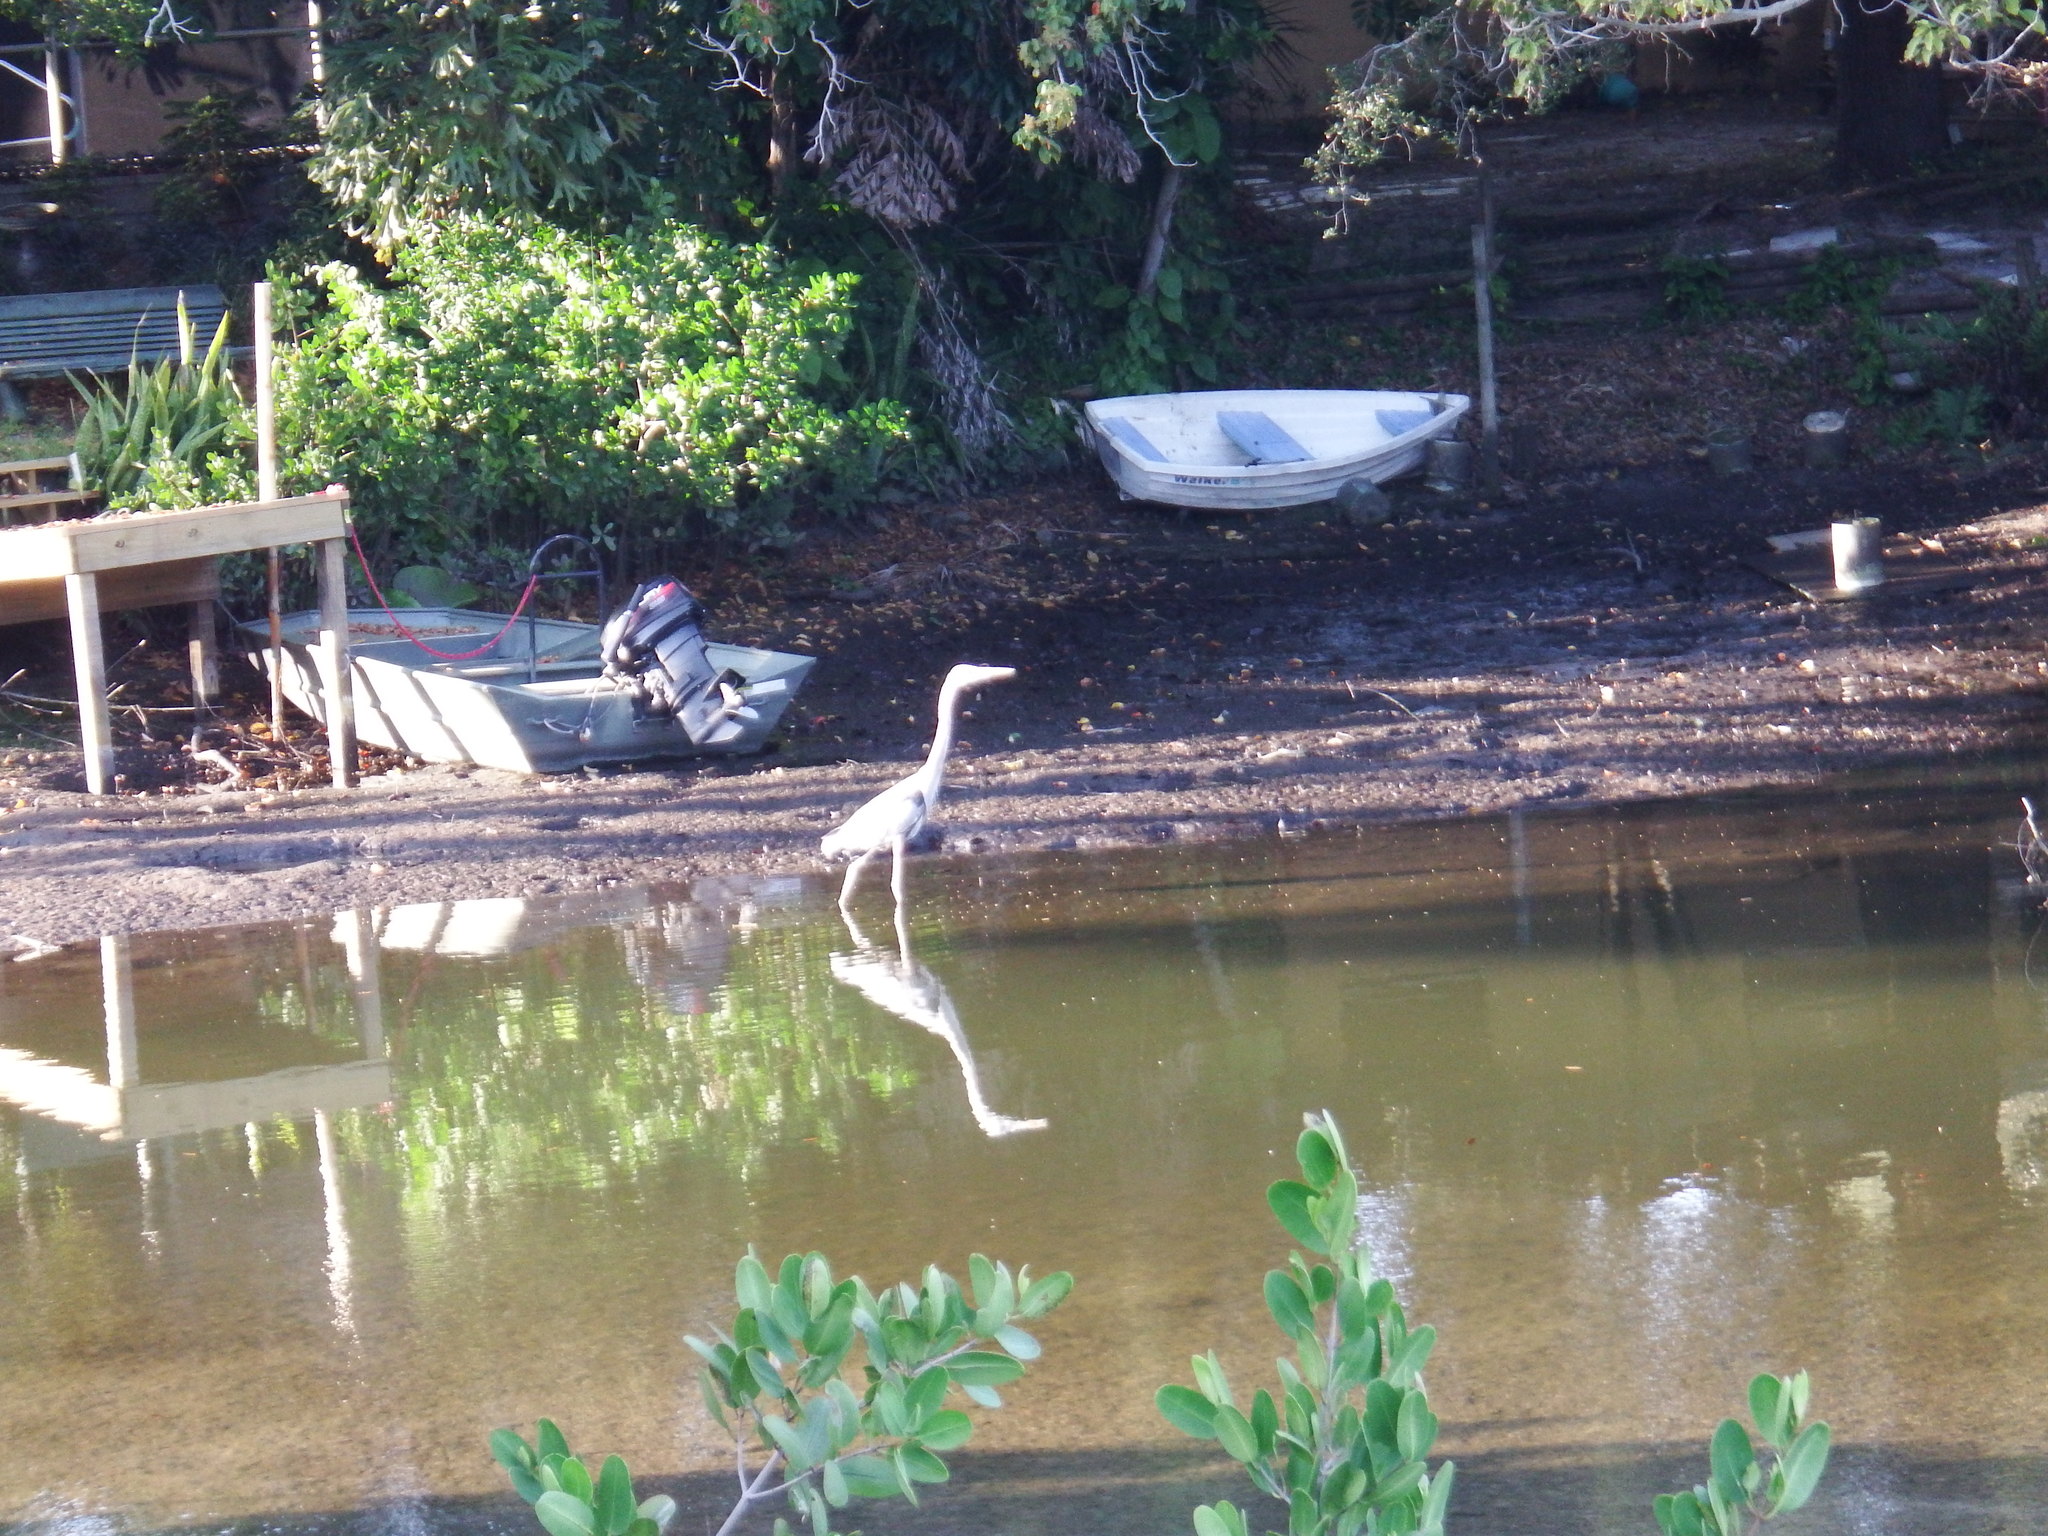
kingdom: Animalia
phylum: Chordata
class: Aves
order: Pelecaniformes
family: Ardeidae
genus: Ardea
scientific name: Ardea herodias
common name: Great blue heron
